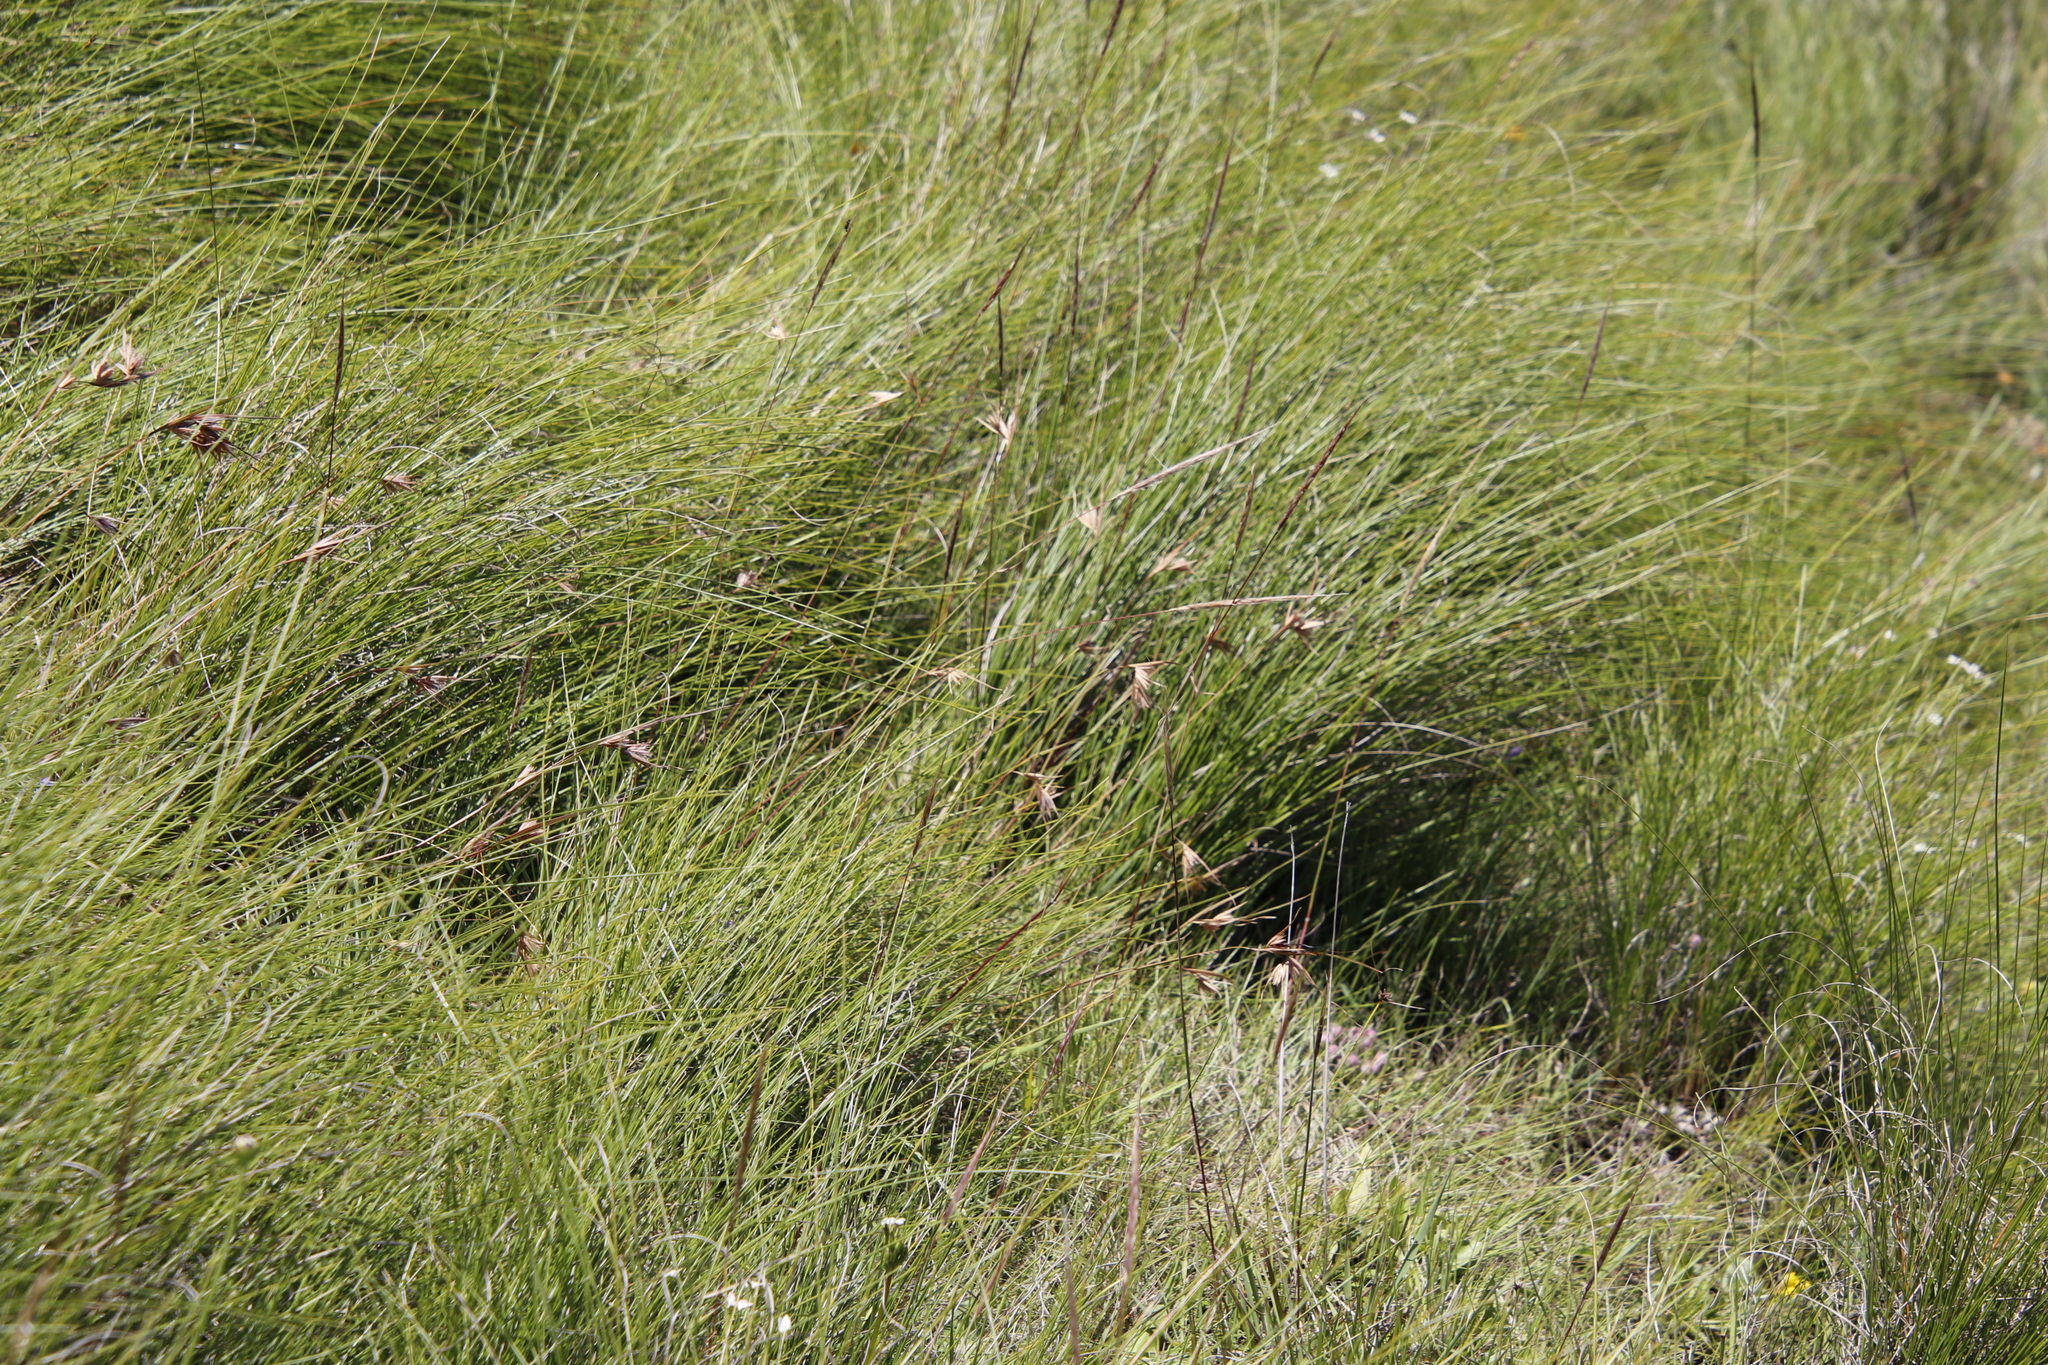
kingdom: Plantae
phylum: Tracheophyta
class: Liliopsida
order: Poales
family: Poaceae
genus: Themeda
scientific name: Themeda triandra
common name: Kangaroo grass
